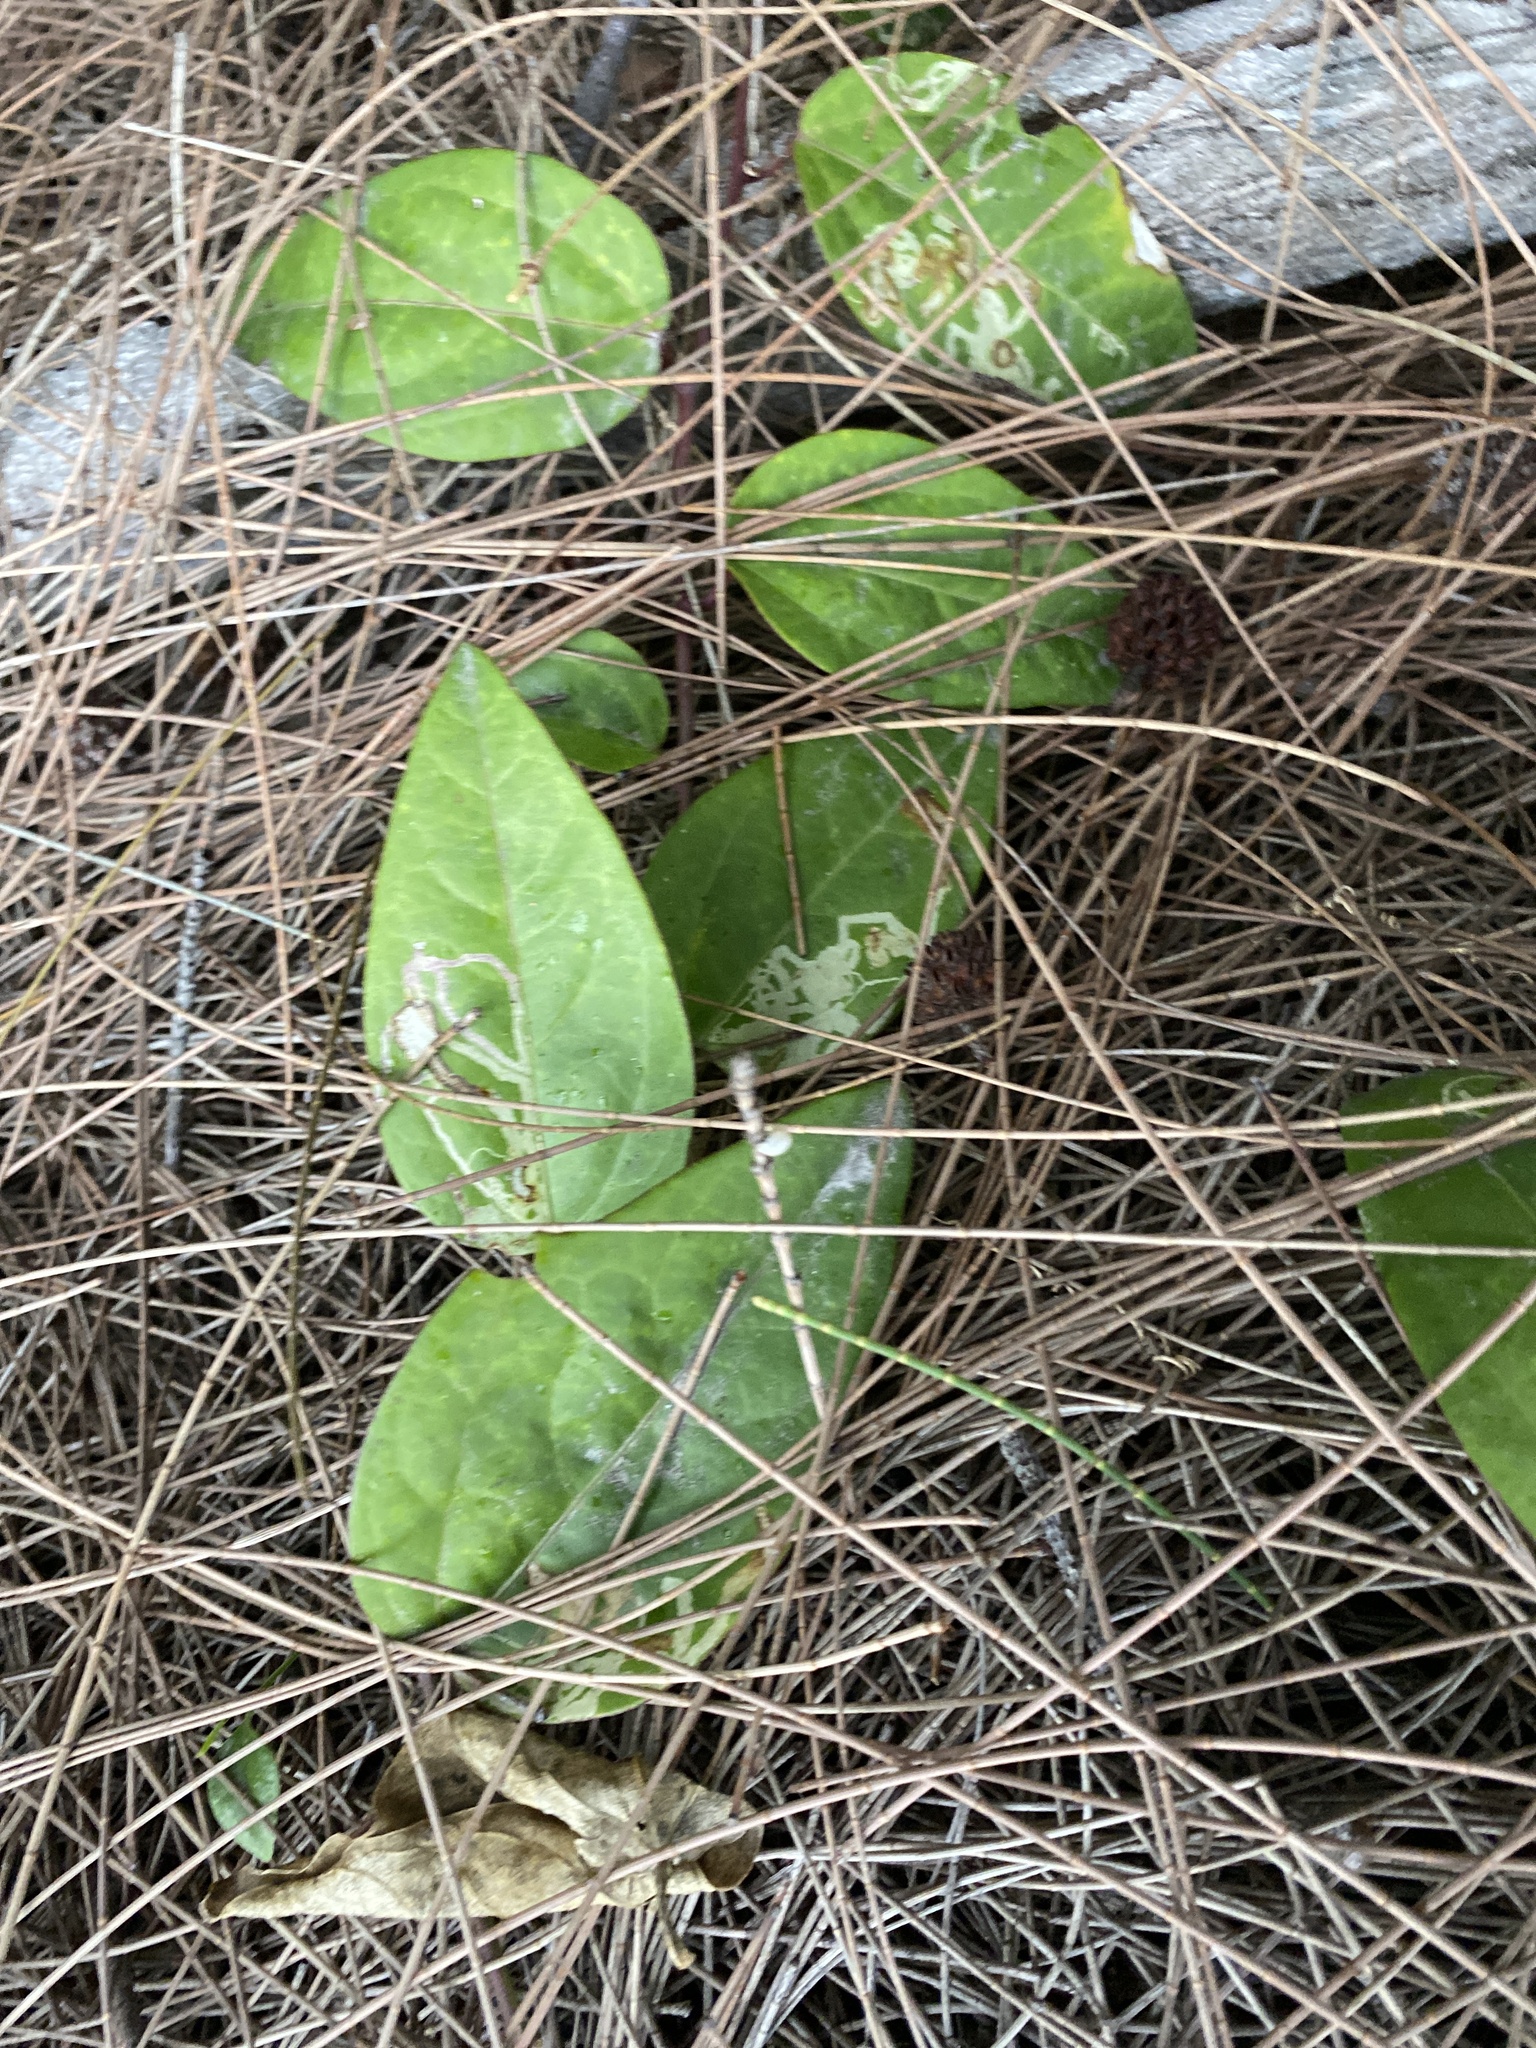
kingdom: Plantae
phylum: Tracheophyta
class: Magnoliopsida
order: Malpighiales
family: Passifloraceae
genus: Passiflora
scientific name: Passiflora pallida
